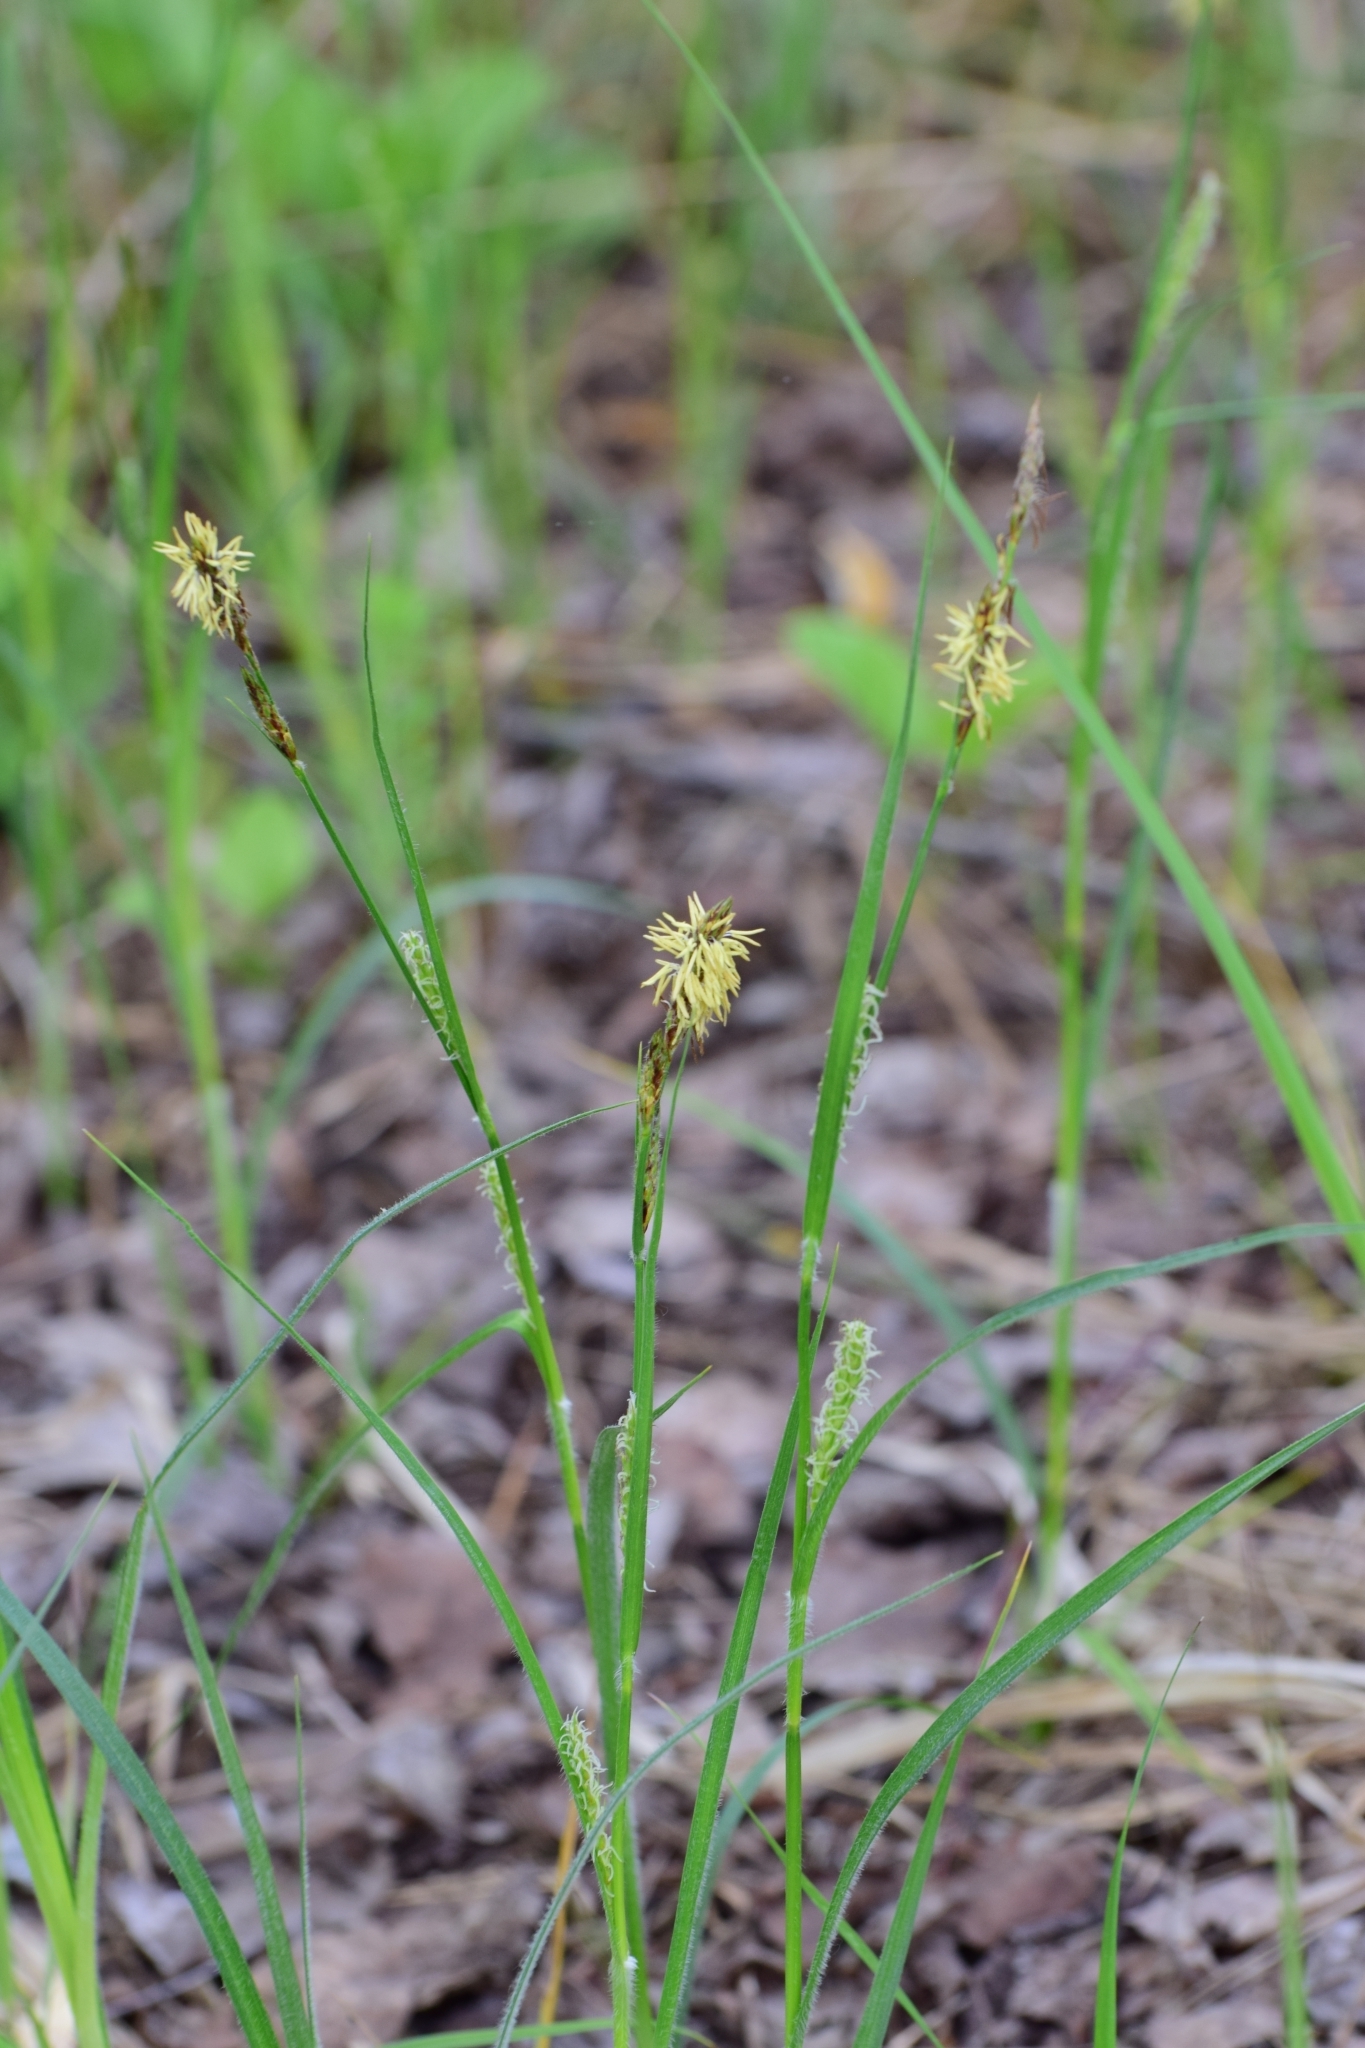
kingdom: Plantae
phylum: Tracheophyta
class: Liliopsida
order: Poales
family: Cyperaceae
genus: Carex
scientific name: Carex hirta
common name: Hairy sedge
